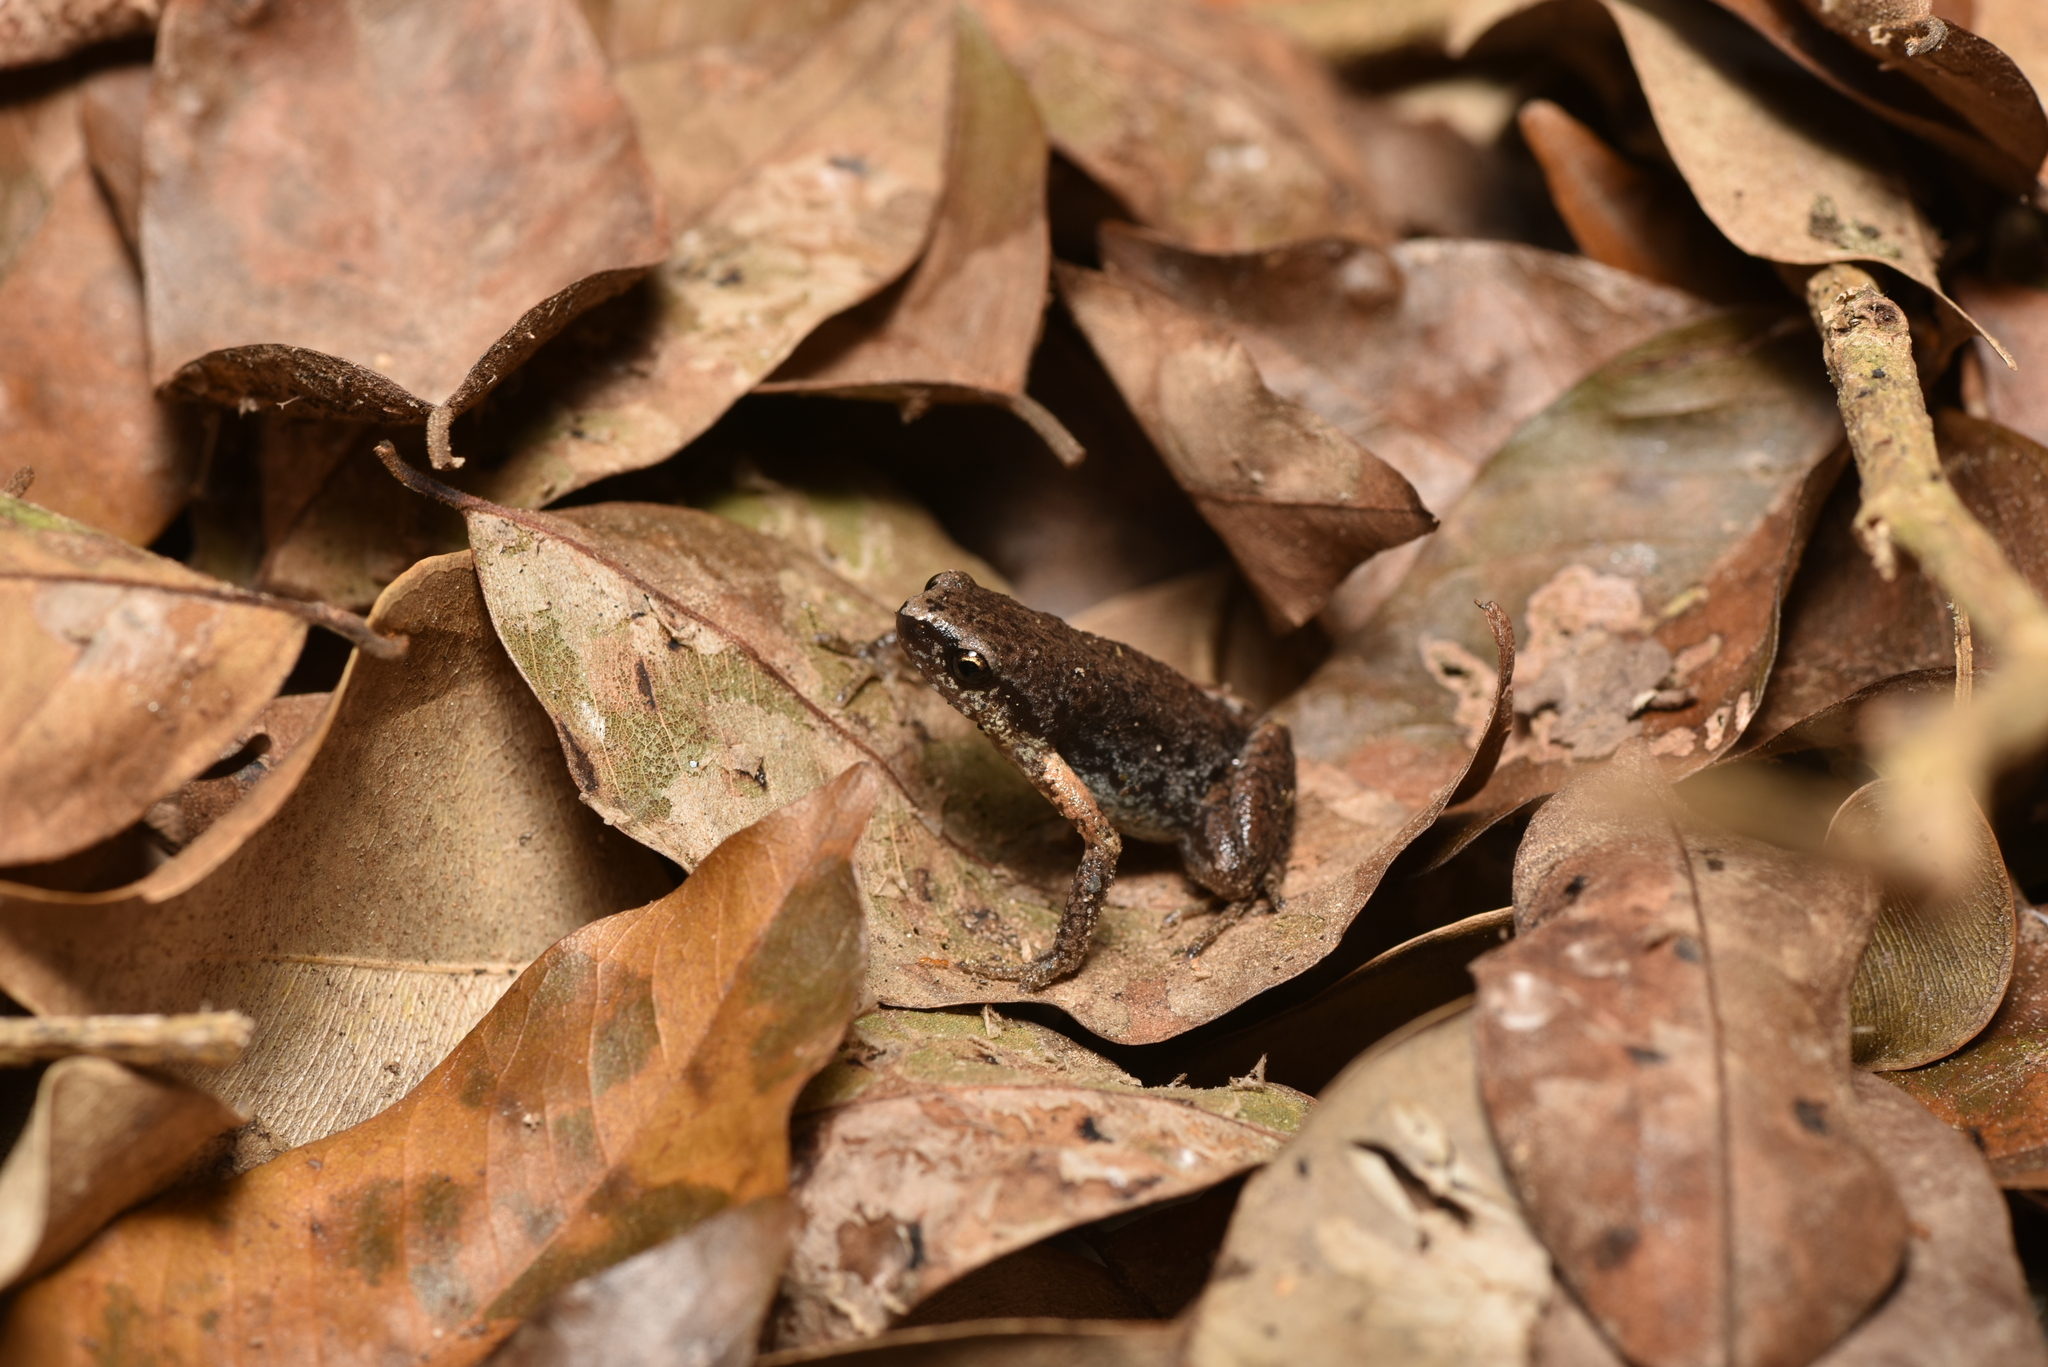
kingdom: Animalia
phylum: Chordata
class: Amphibia
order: Anura
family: Microhylidae
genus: Micryletta
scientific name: Micryletta steinegeri
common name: Stejneger's paddy frog
